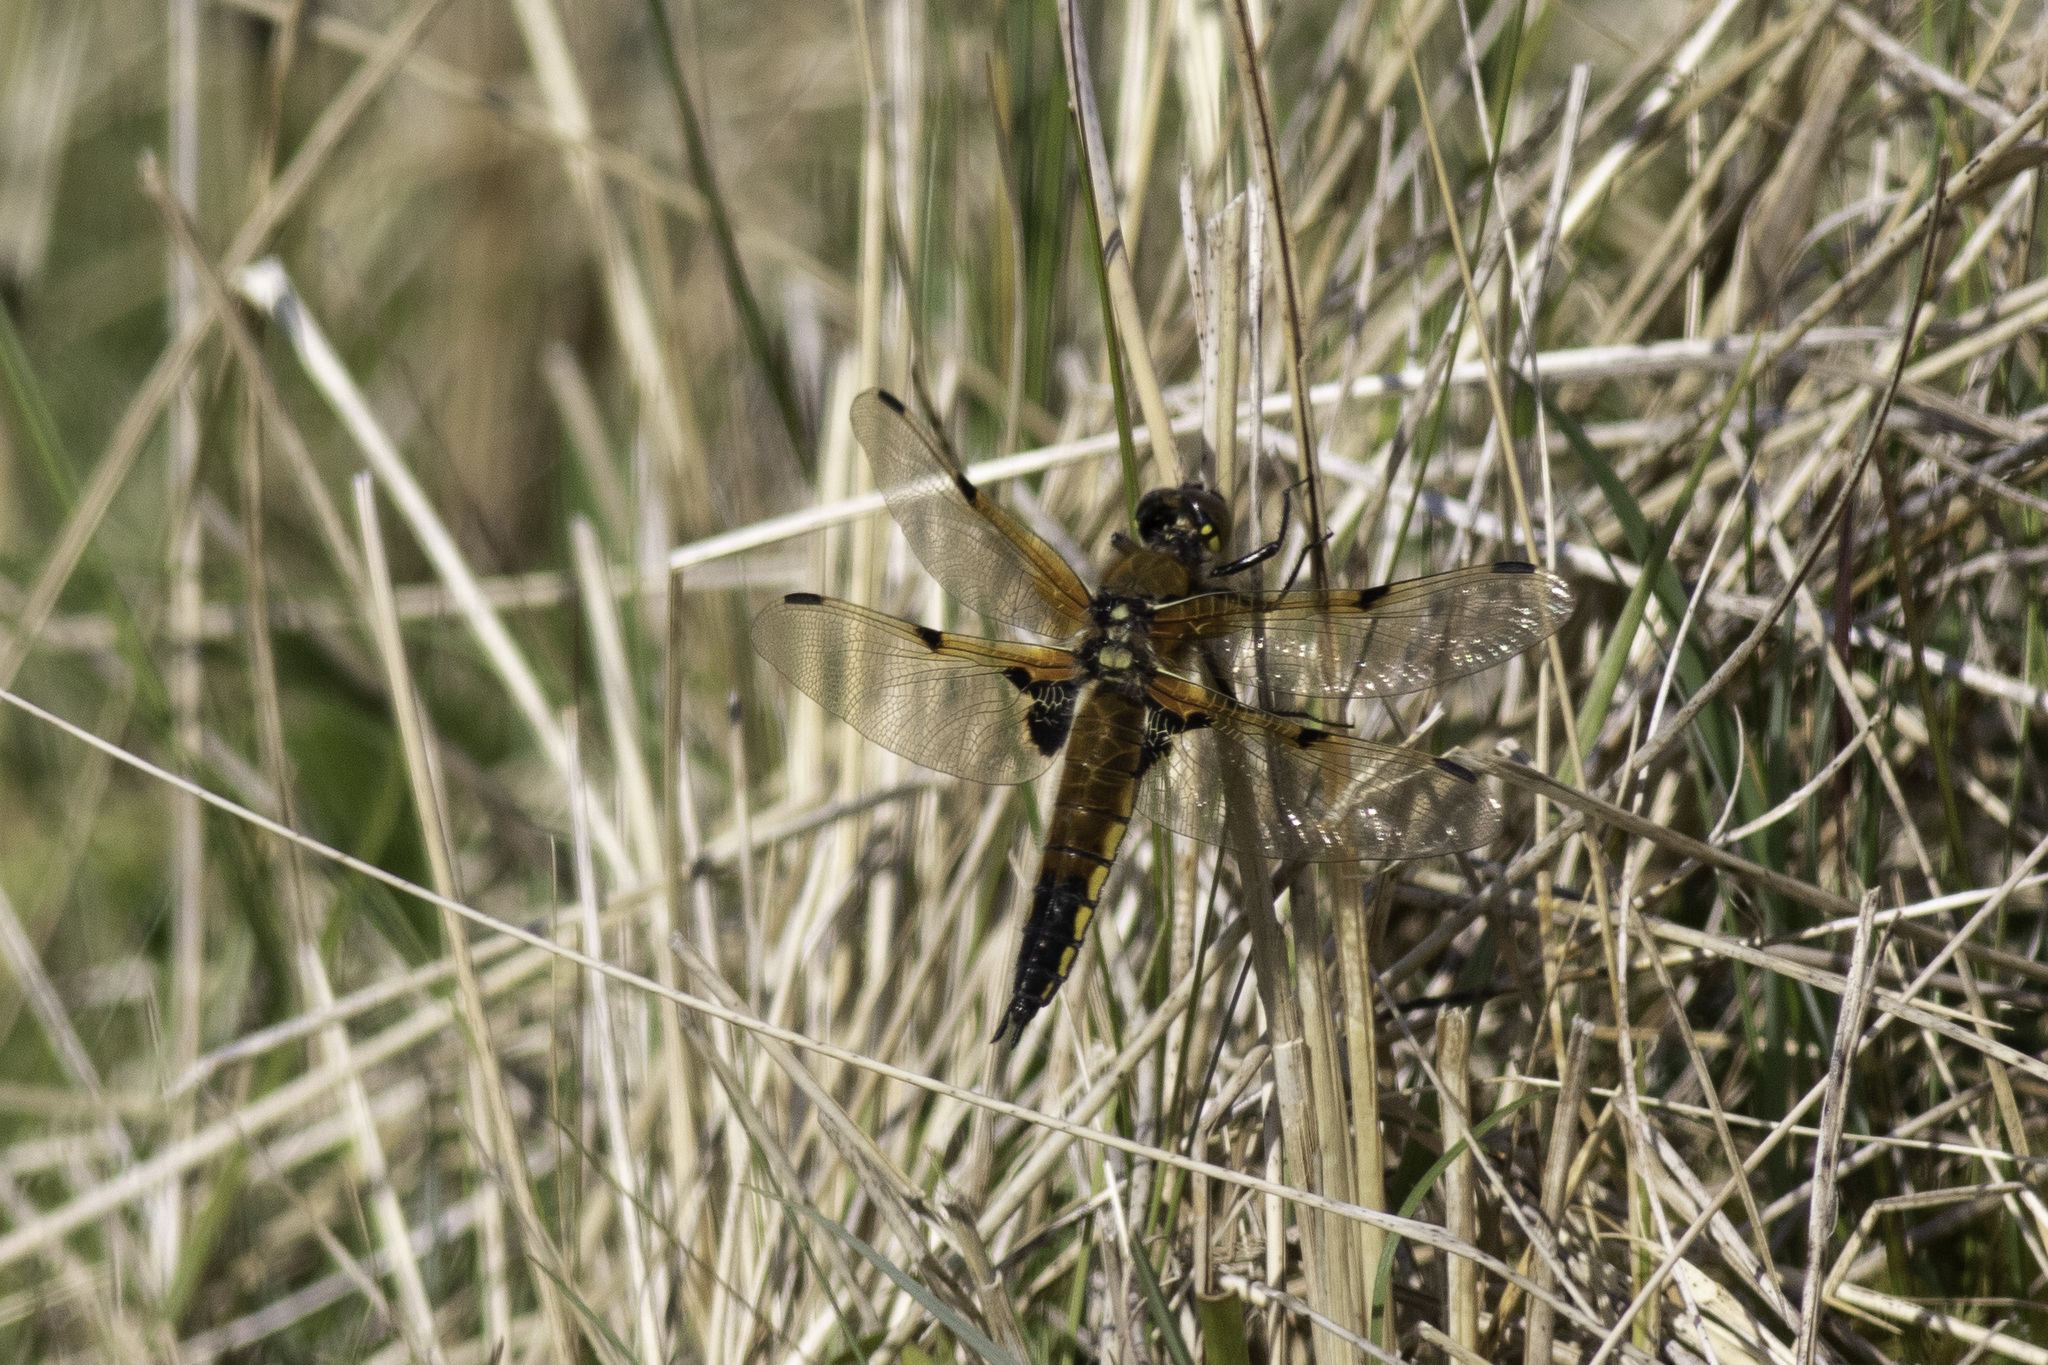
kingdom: Animalia
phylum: Arthropoda
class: Insecta
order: Odonata
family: Libellulidae
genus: Libellula
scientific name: Libellula quadrimaculata
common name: Four-spotted chaser
